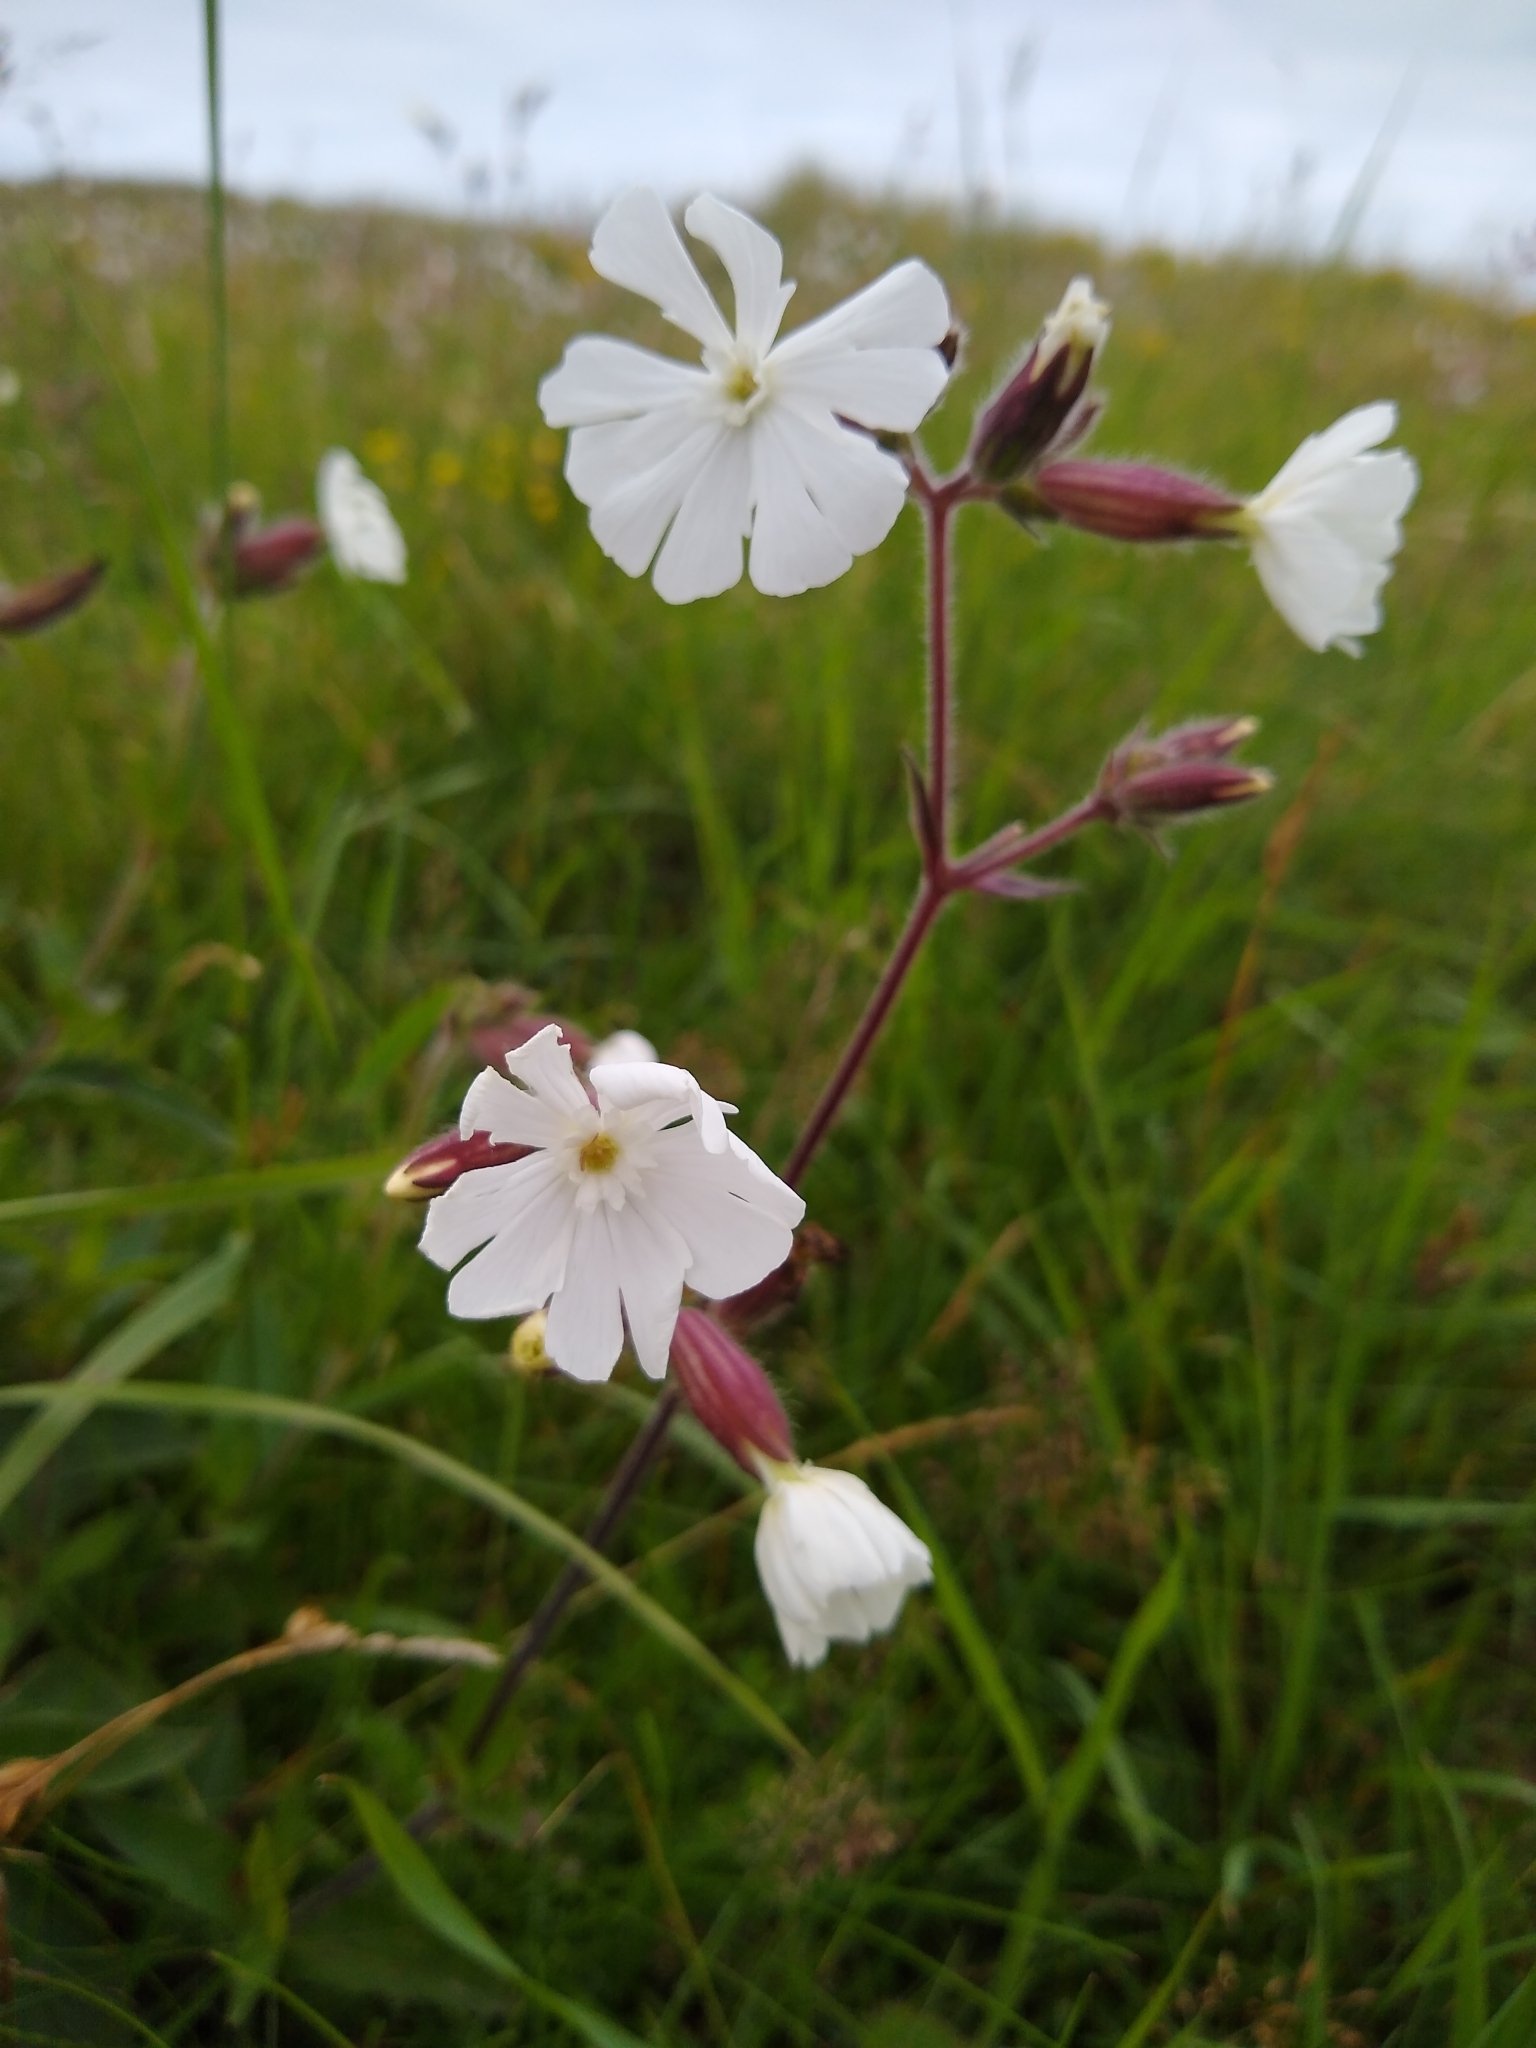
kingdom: Plantae
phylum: Tracheophyta
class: Magnoliopsida
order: Caryophyllales
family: Caryophyllaceae
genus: Silene
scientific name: Silene latifolia
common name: White campion
